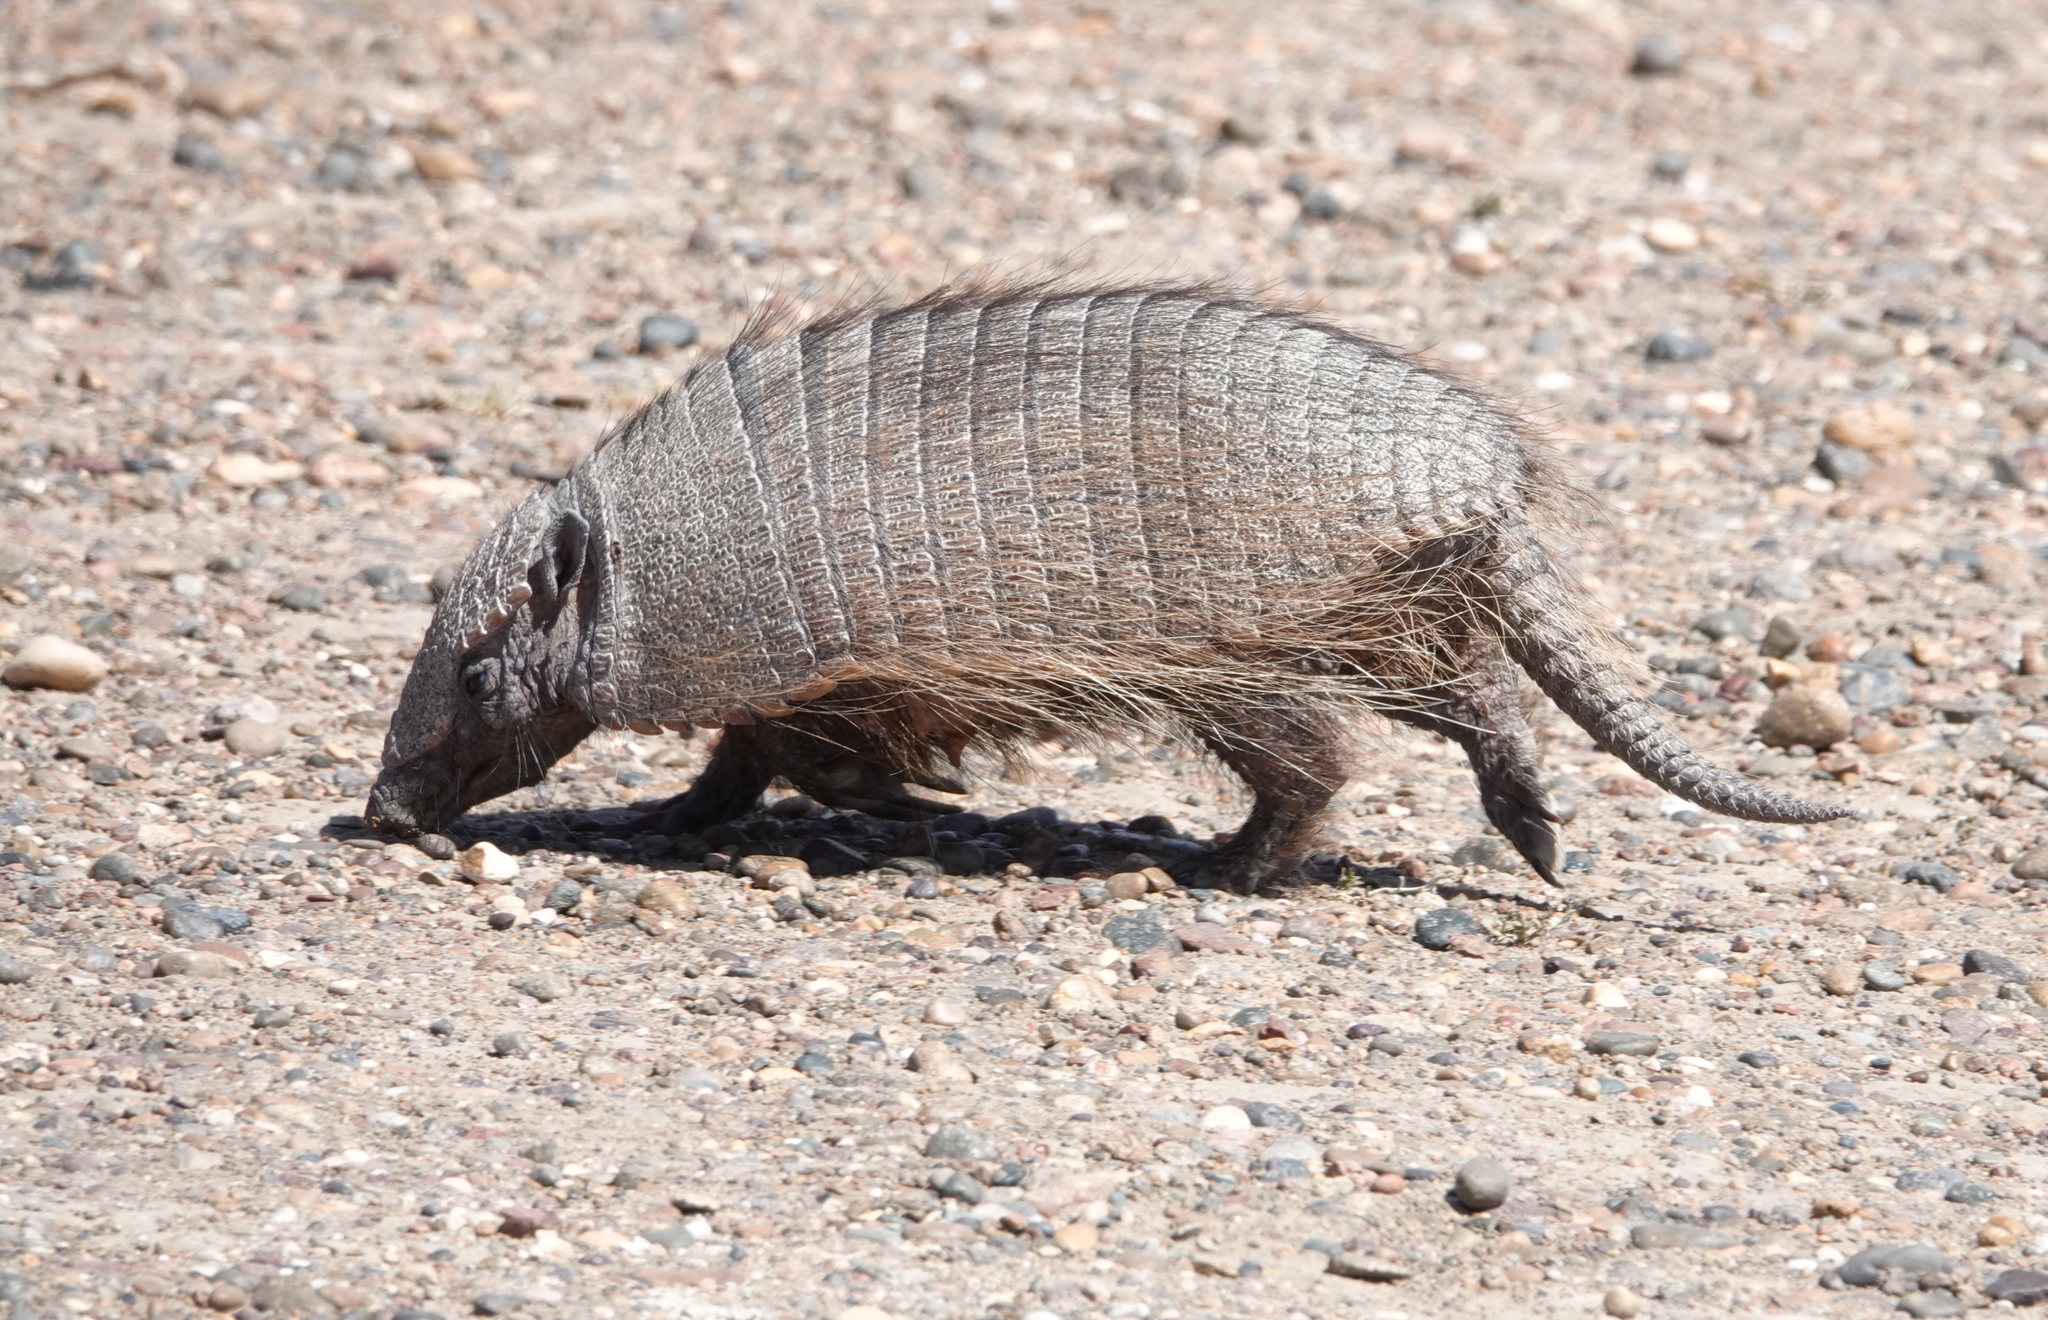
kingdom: Animalia
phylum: Chordata
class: Mammalia
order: Cingulata
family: Dasypodidae
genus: Chaetophractus
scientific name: Chaetophractus villosus
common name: Big hairy armadillo
